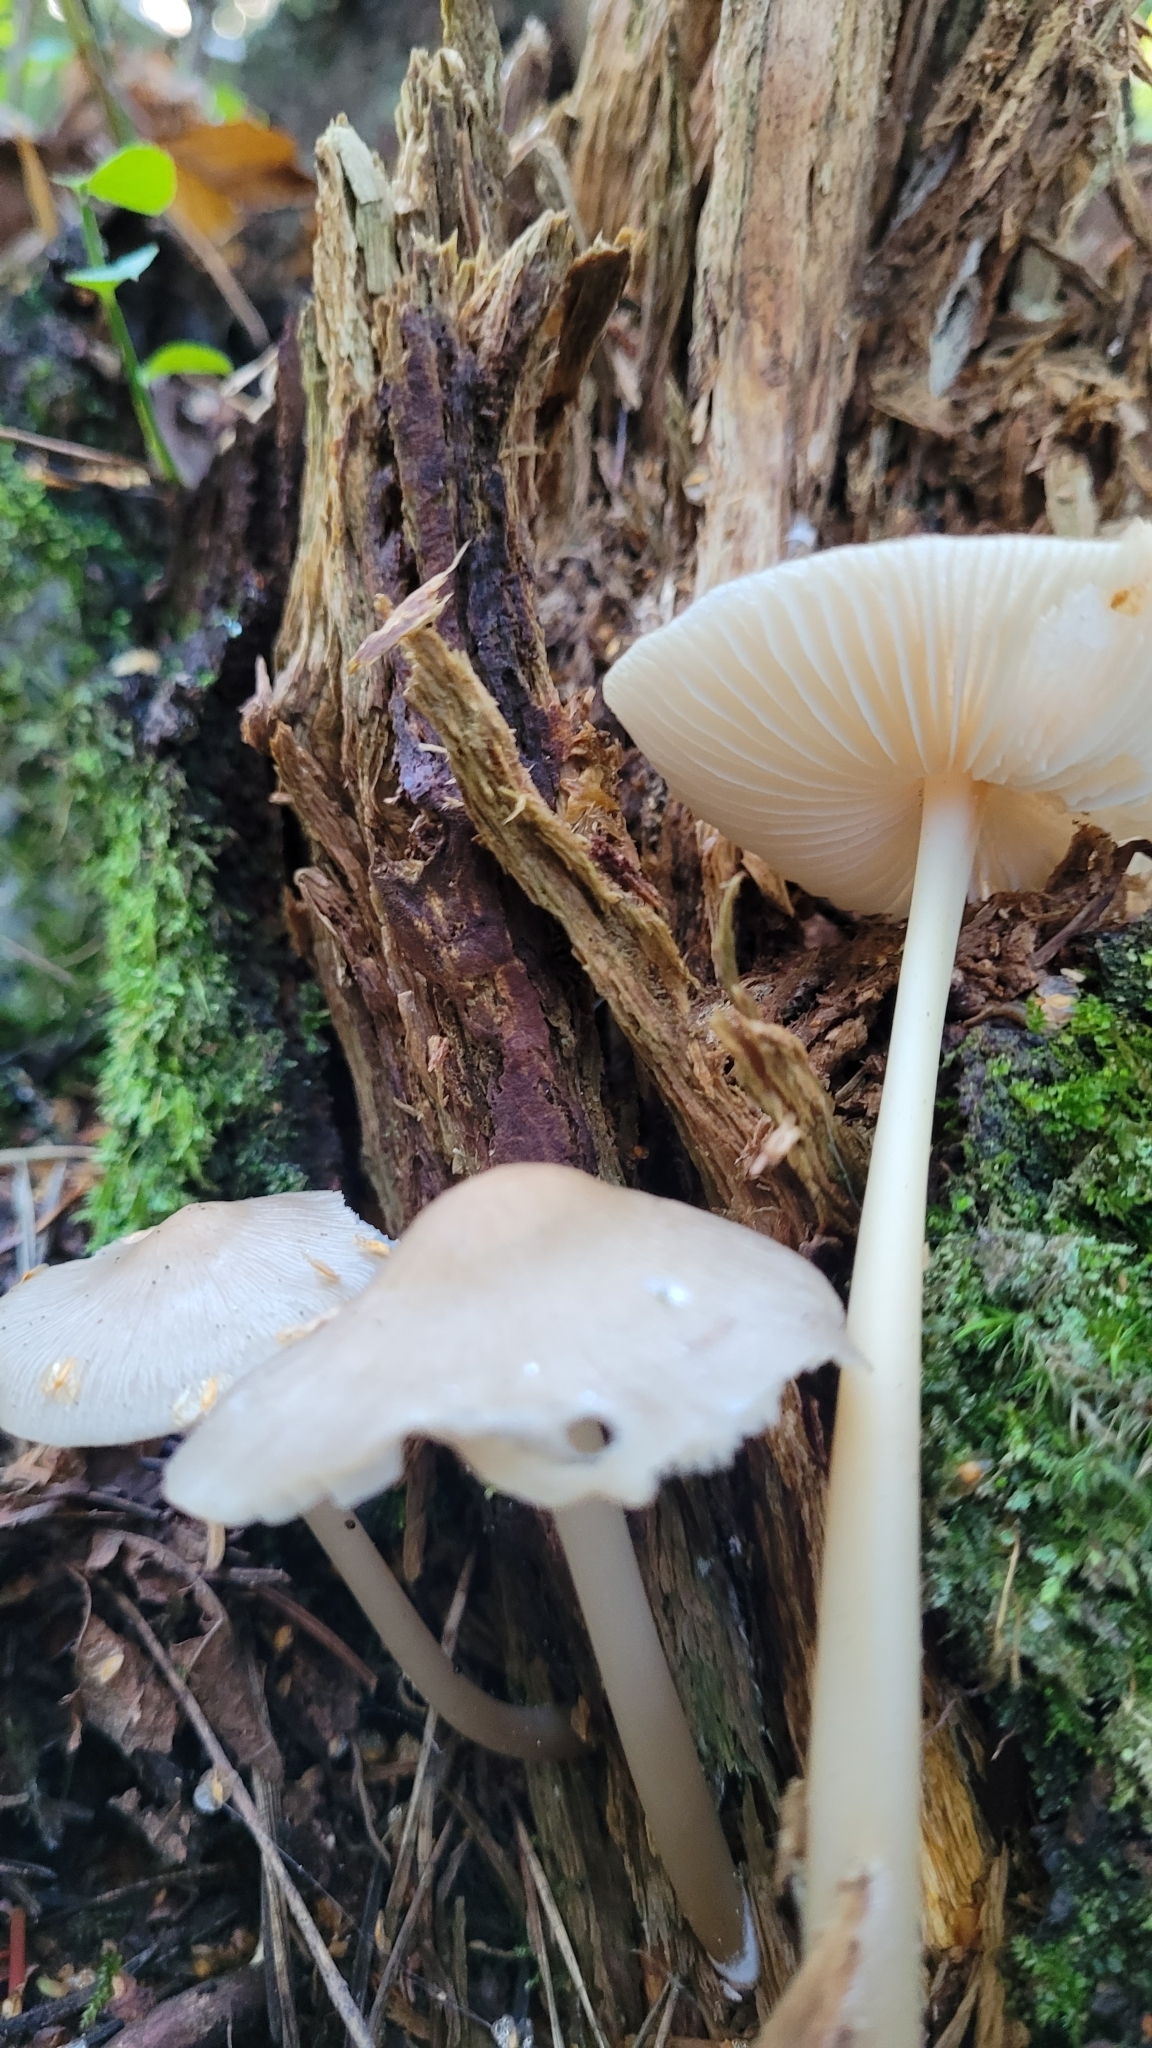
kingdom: Fungi
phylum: Basidiomycota
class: Agaricomycetes
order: Agaricales
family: Mycenaceae
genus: Mycena
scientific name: Mycena galericulata
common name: Bonnet mycena
